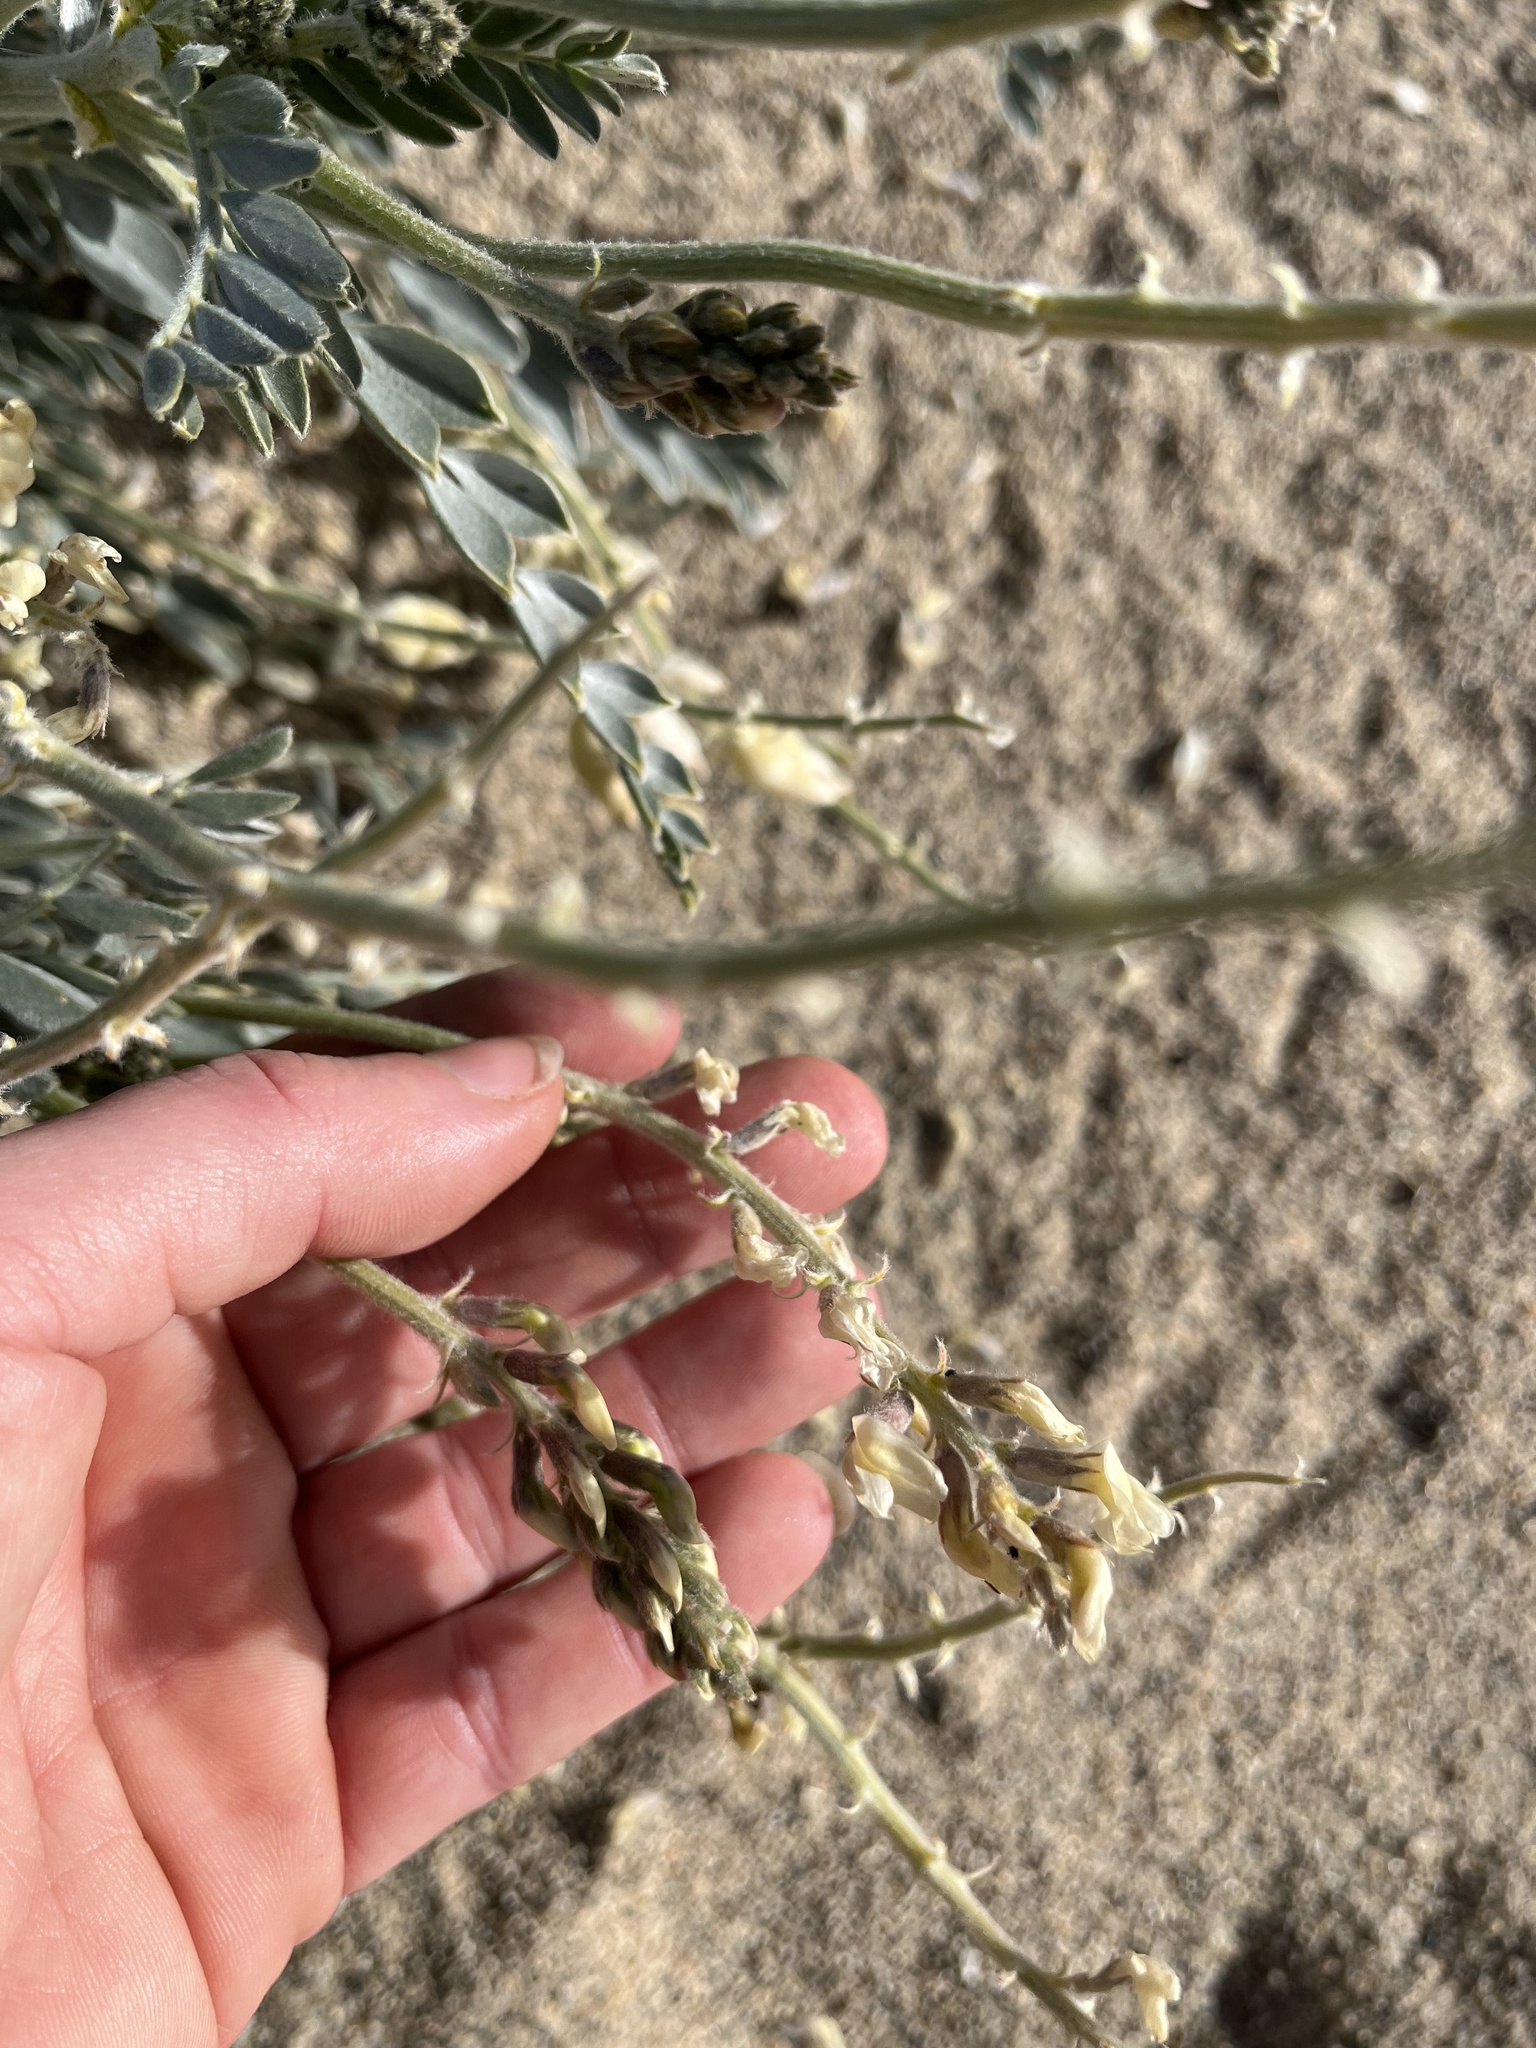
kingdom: Plantae
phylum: Tracheophyta
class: Magnoliopsida
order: Fabales
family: Fabaceae
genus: Astragalus
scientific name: Astragalus lentiginosus
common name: Freckled milkvetch
